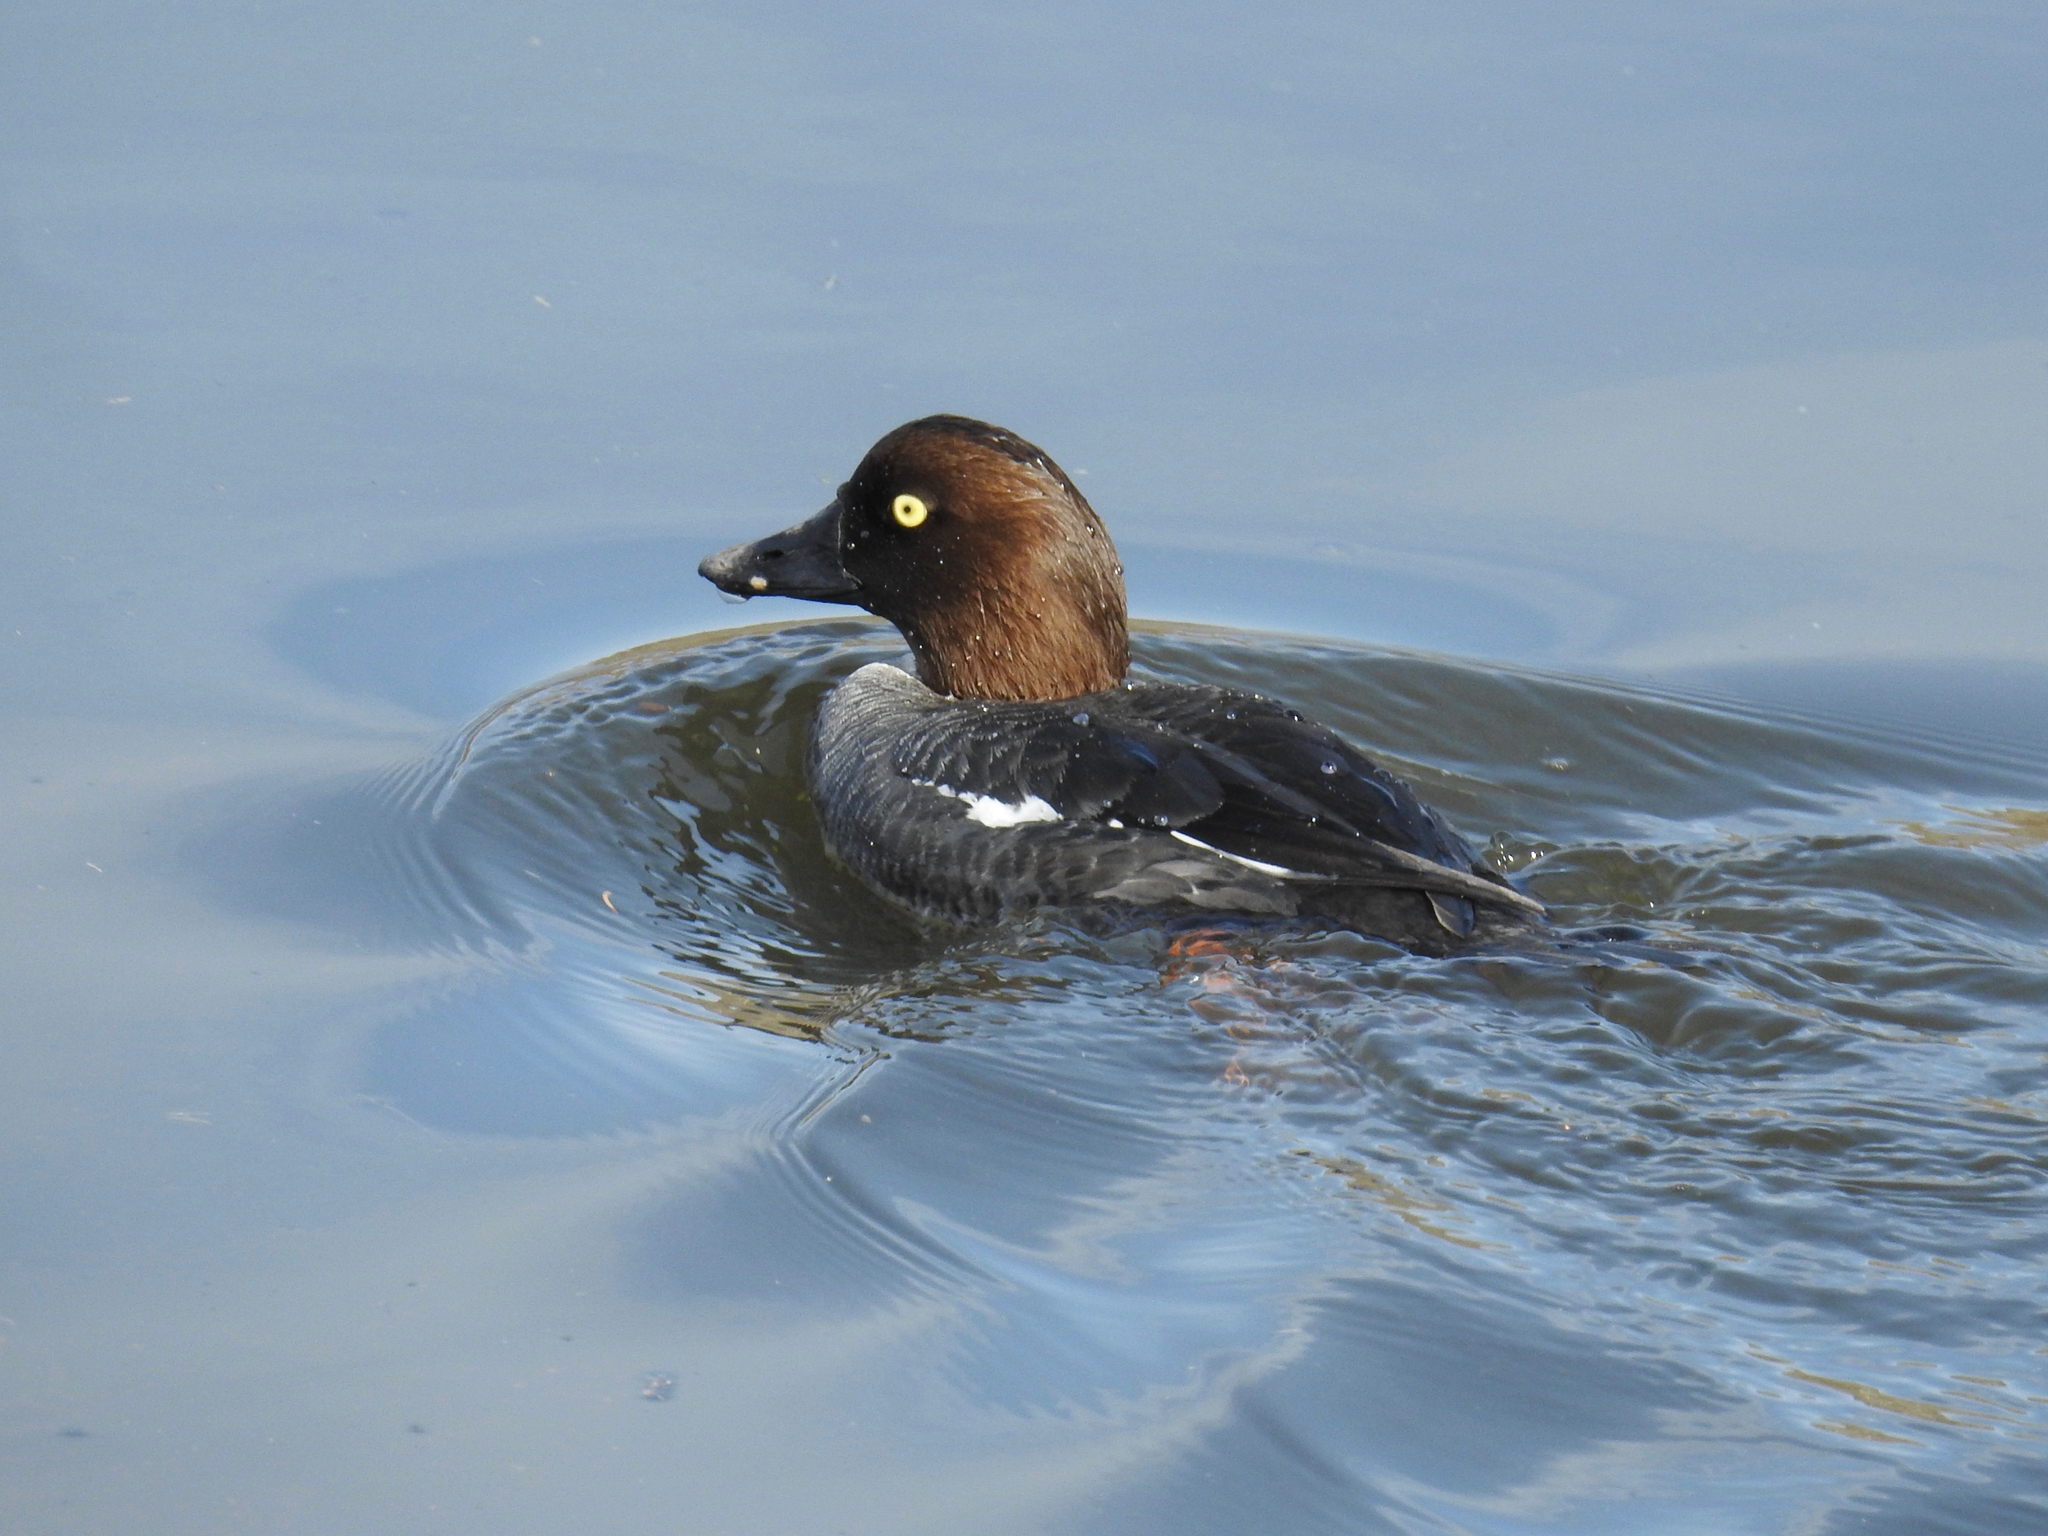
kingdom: Animalia
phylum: Chordata
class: Aves
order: Anseriformes
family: Anatidae
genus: Bucephala
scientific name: Bucephala clangula
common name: Common goldeneye
